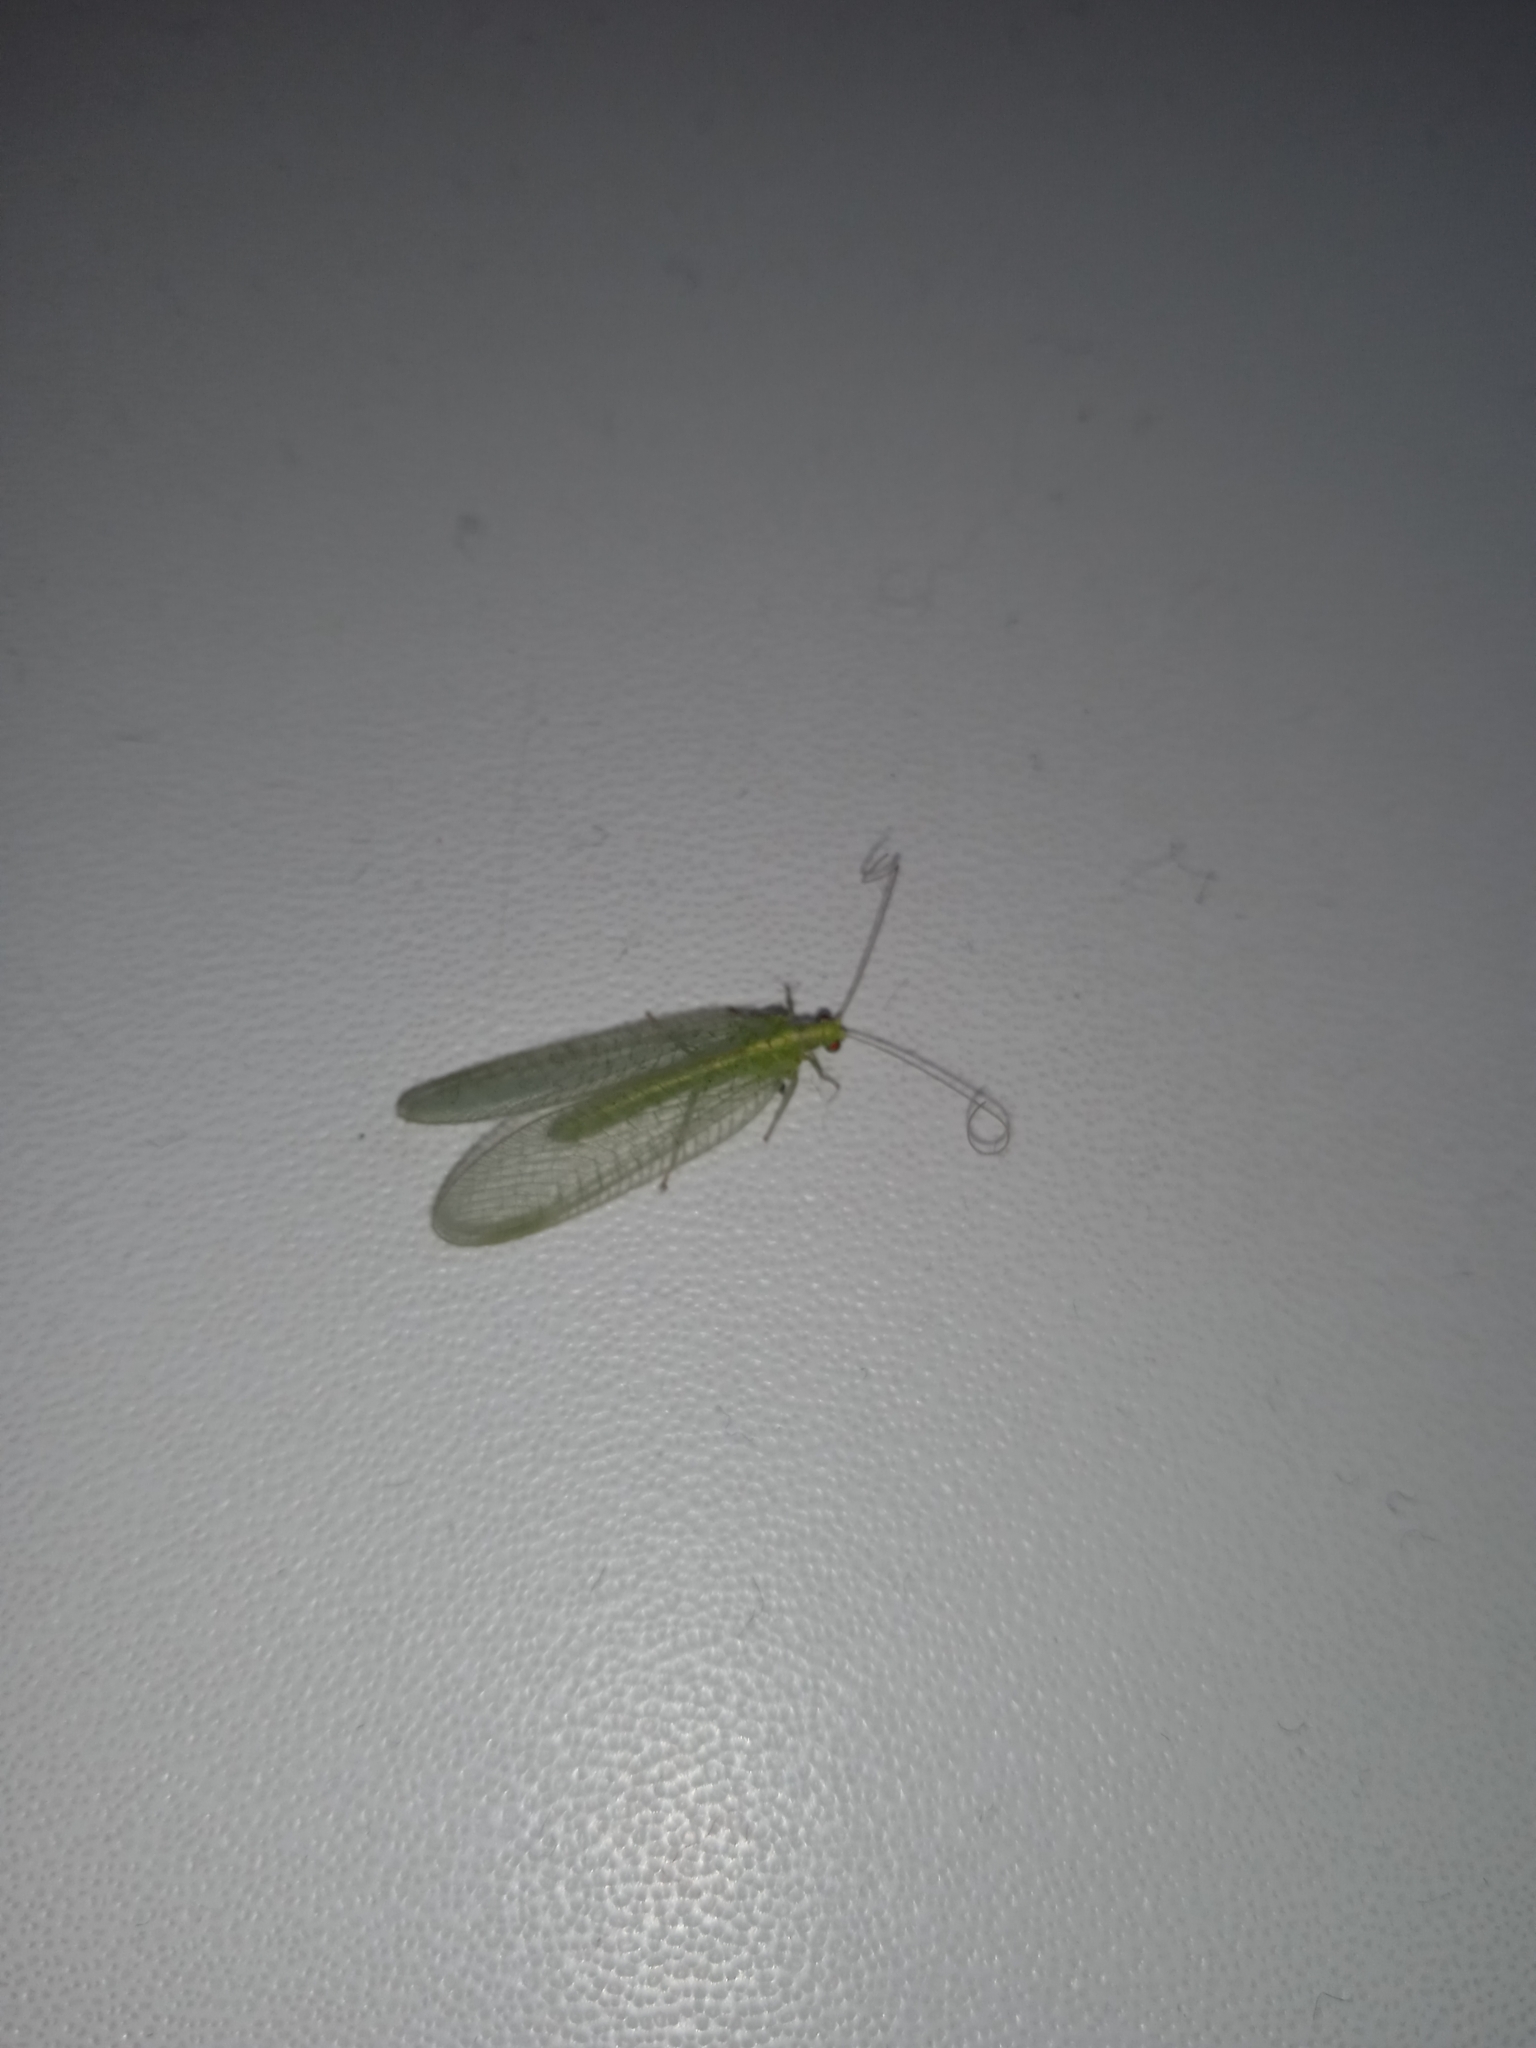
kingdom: Animalia
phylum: Arthropoda
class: Insecta
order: Neuroptera
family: Chrysopidae
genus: Chrysoperla
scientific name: Chrysoperla
